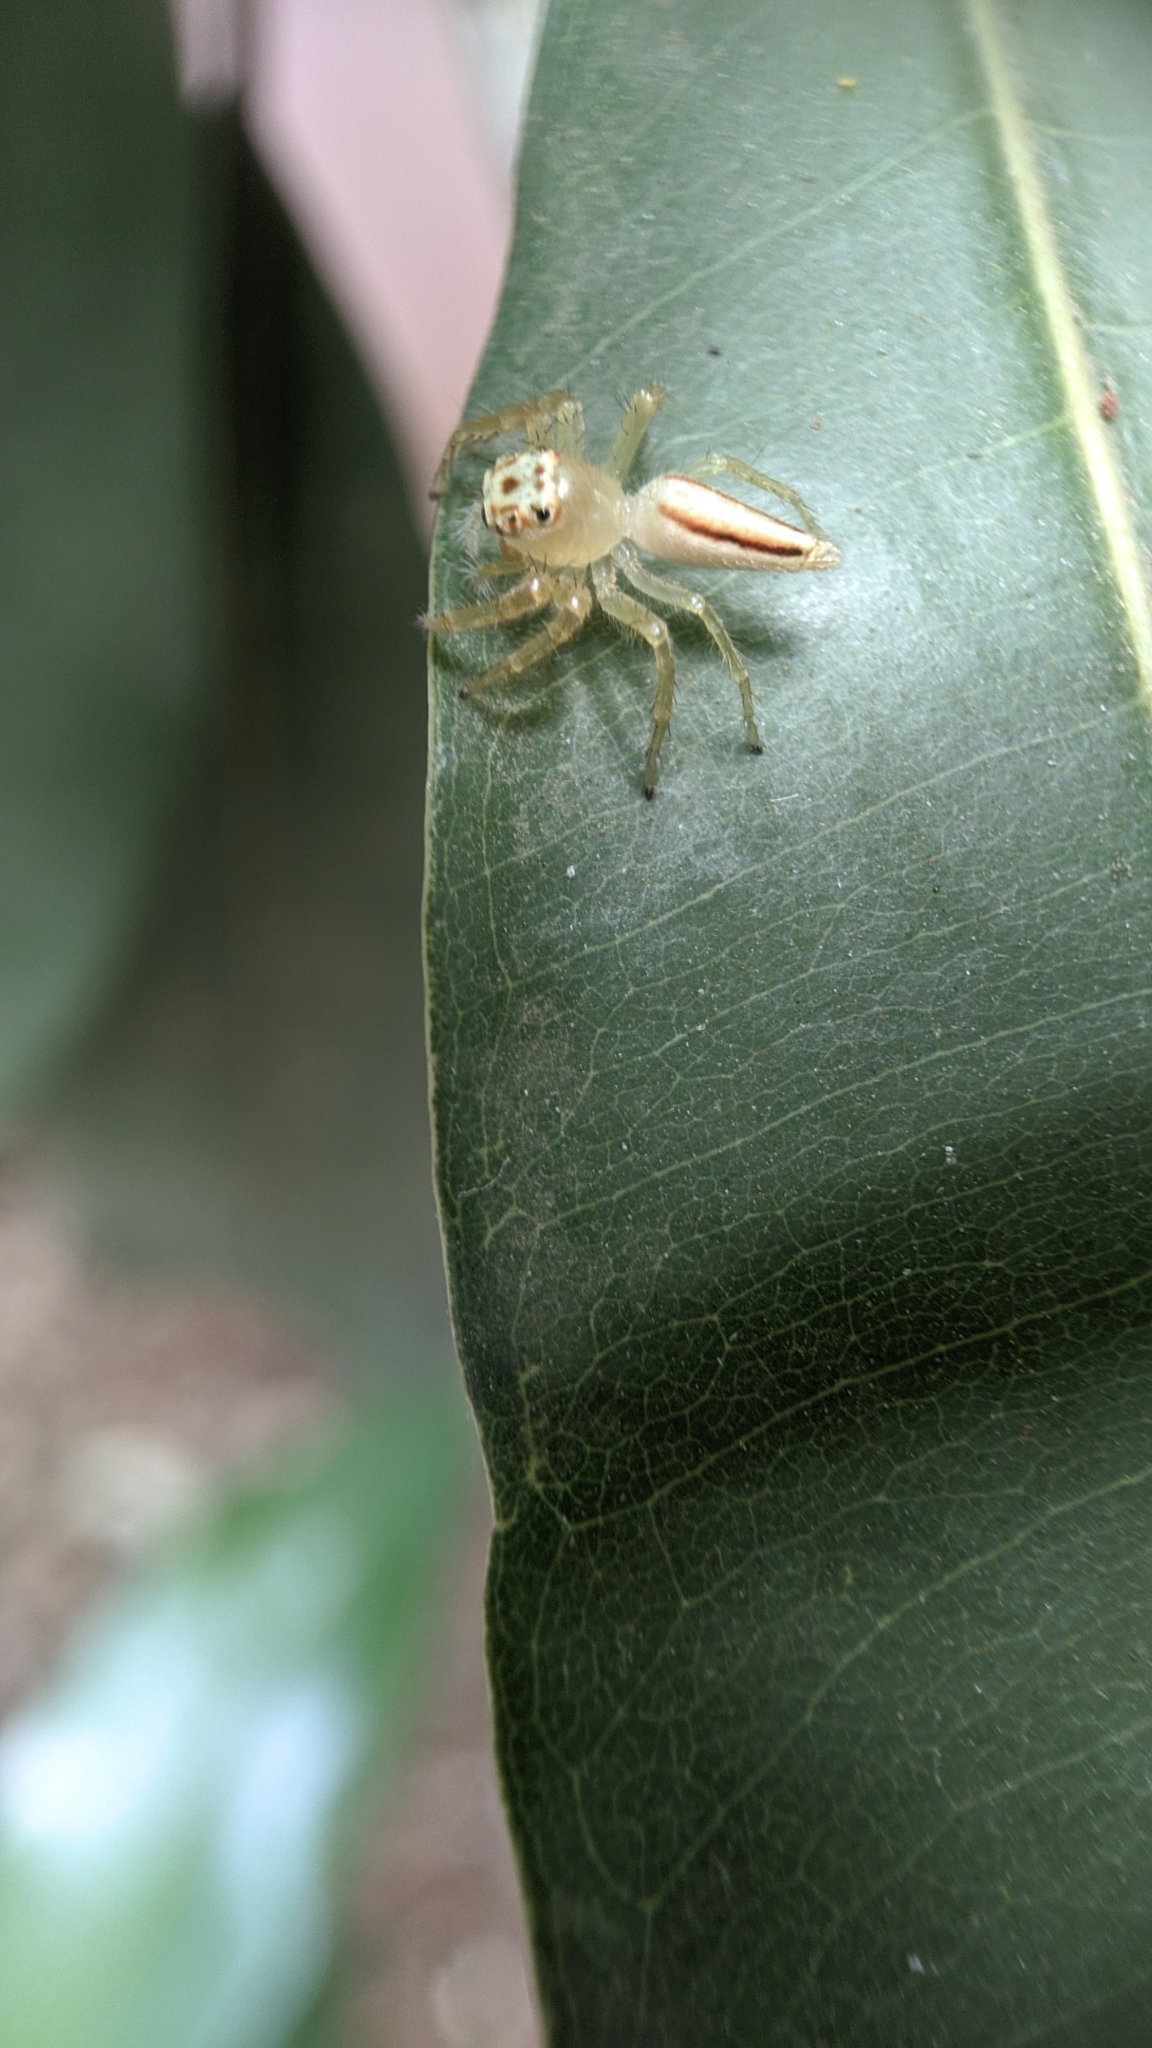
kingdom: Animalia
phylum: Arthropoda
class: Arachnida
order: Araneae
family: Salticidae
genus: Telamonia
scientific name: Telamonia dimidiata
